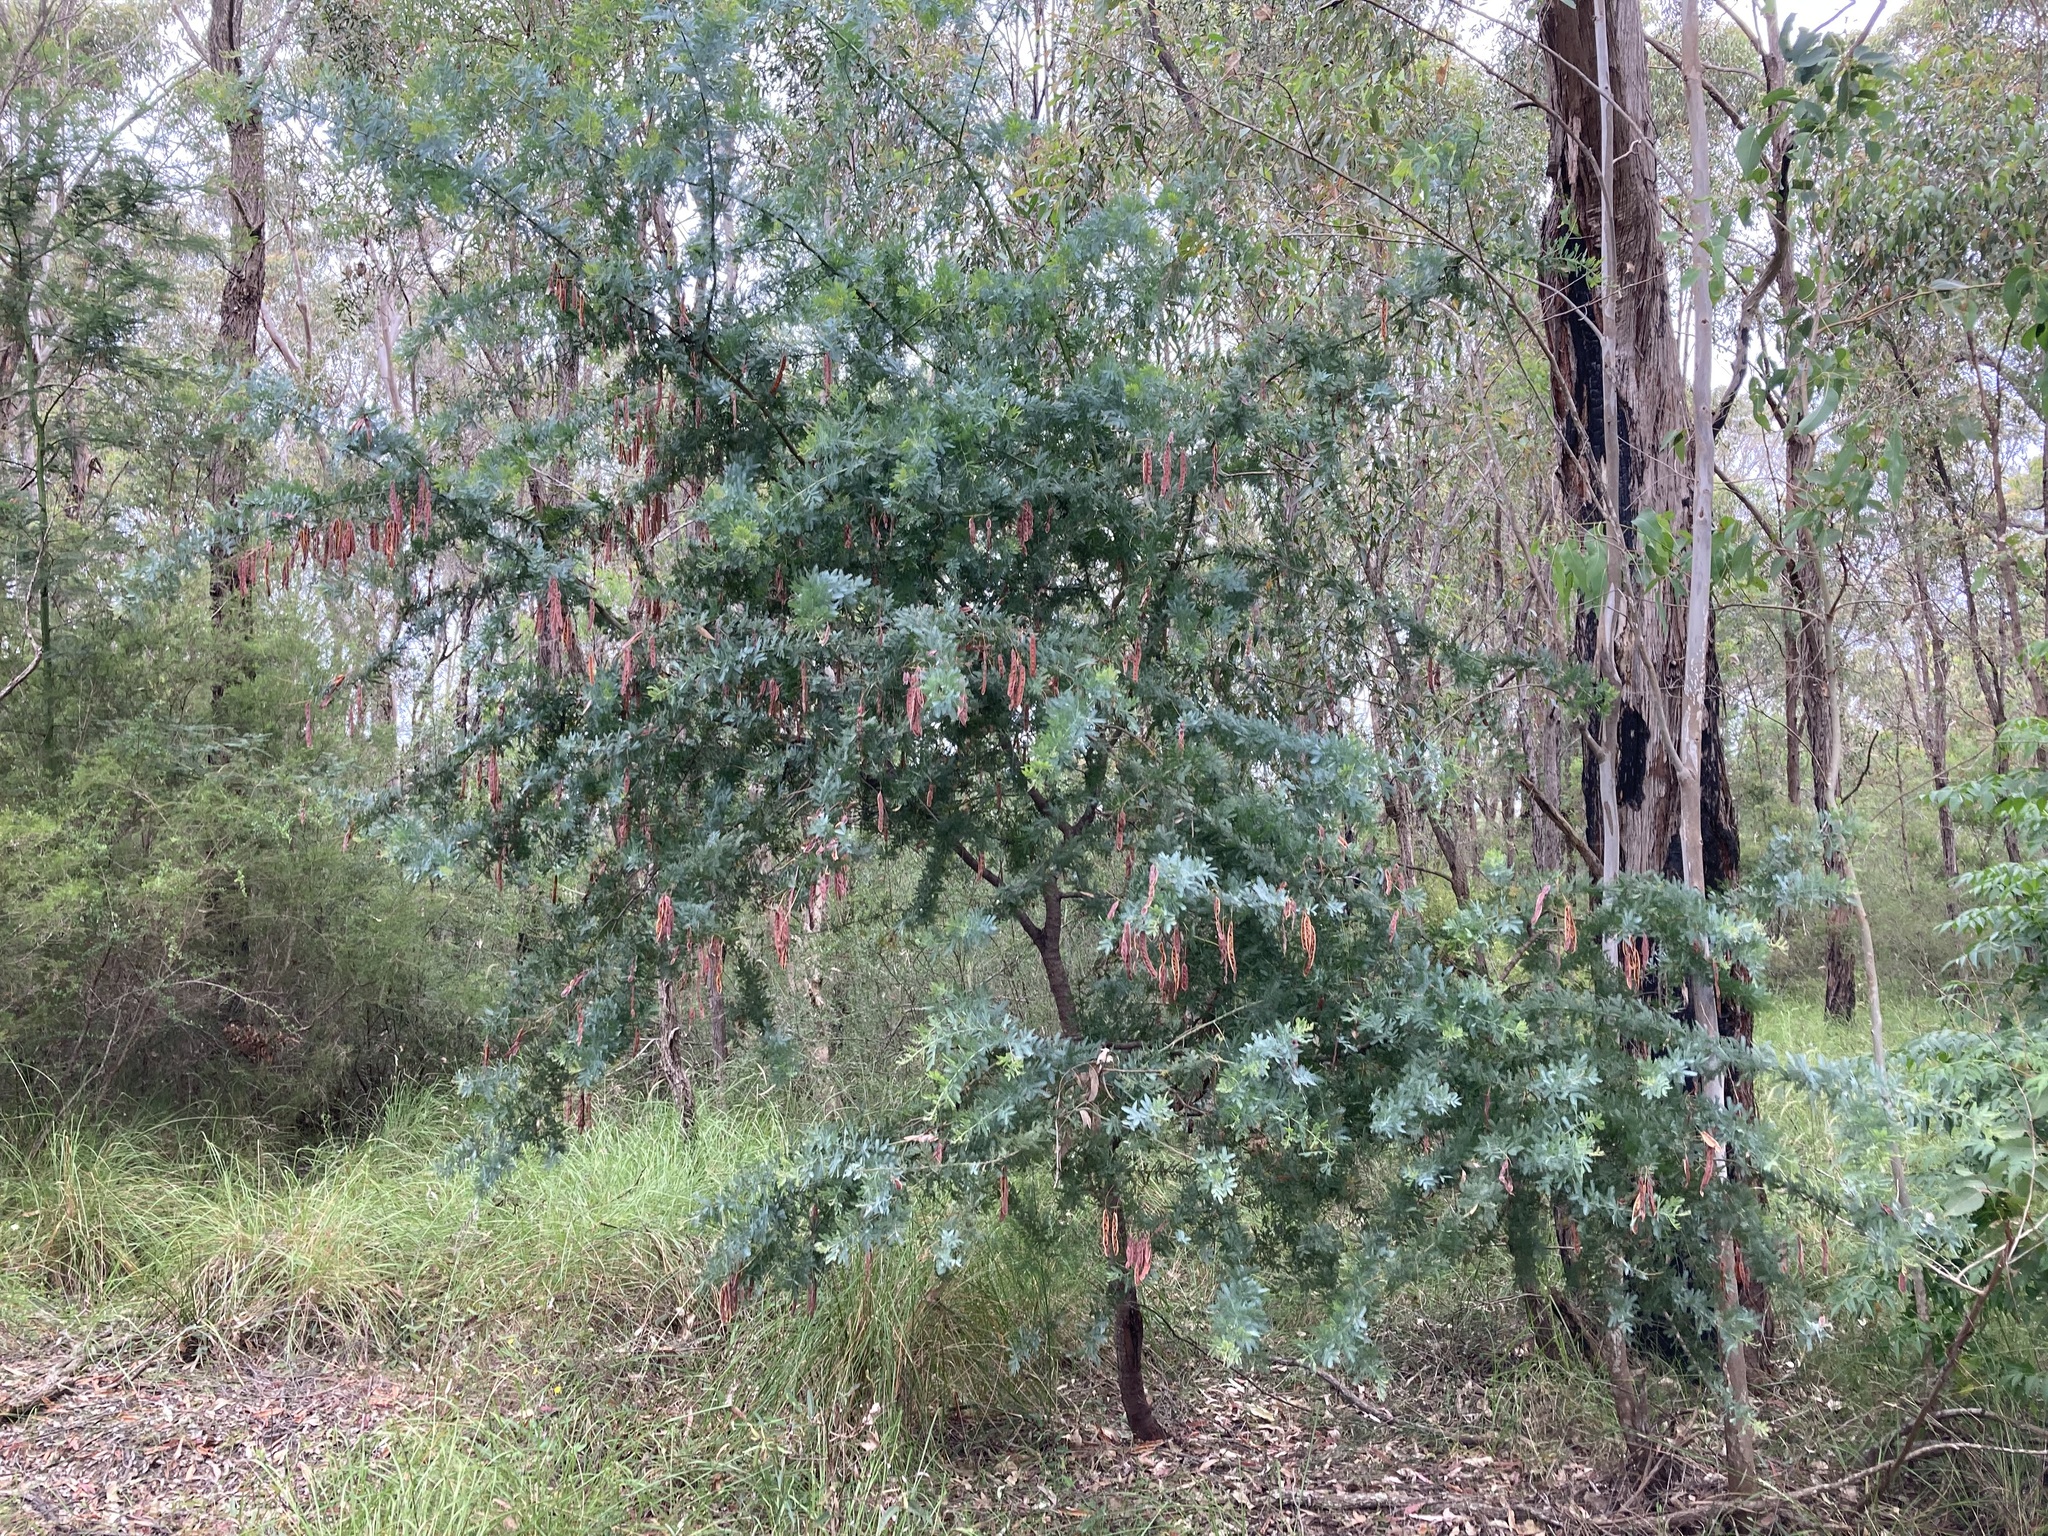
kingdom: Plantae
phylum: Tracheophyta
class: Magnoliopsida
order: Fabales
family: Fabaceae
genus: Acacia
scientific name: Acacia baileyana
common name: Cootamundra wattle
